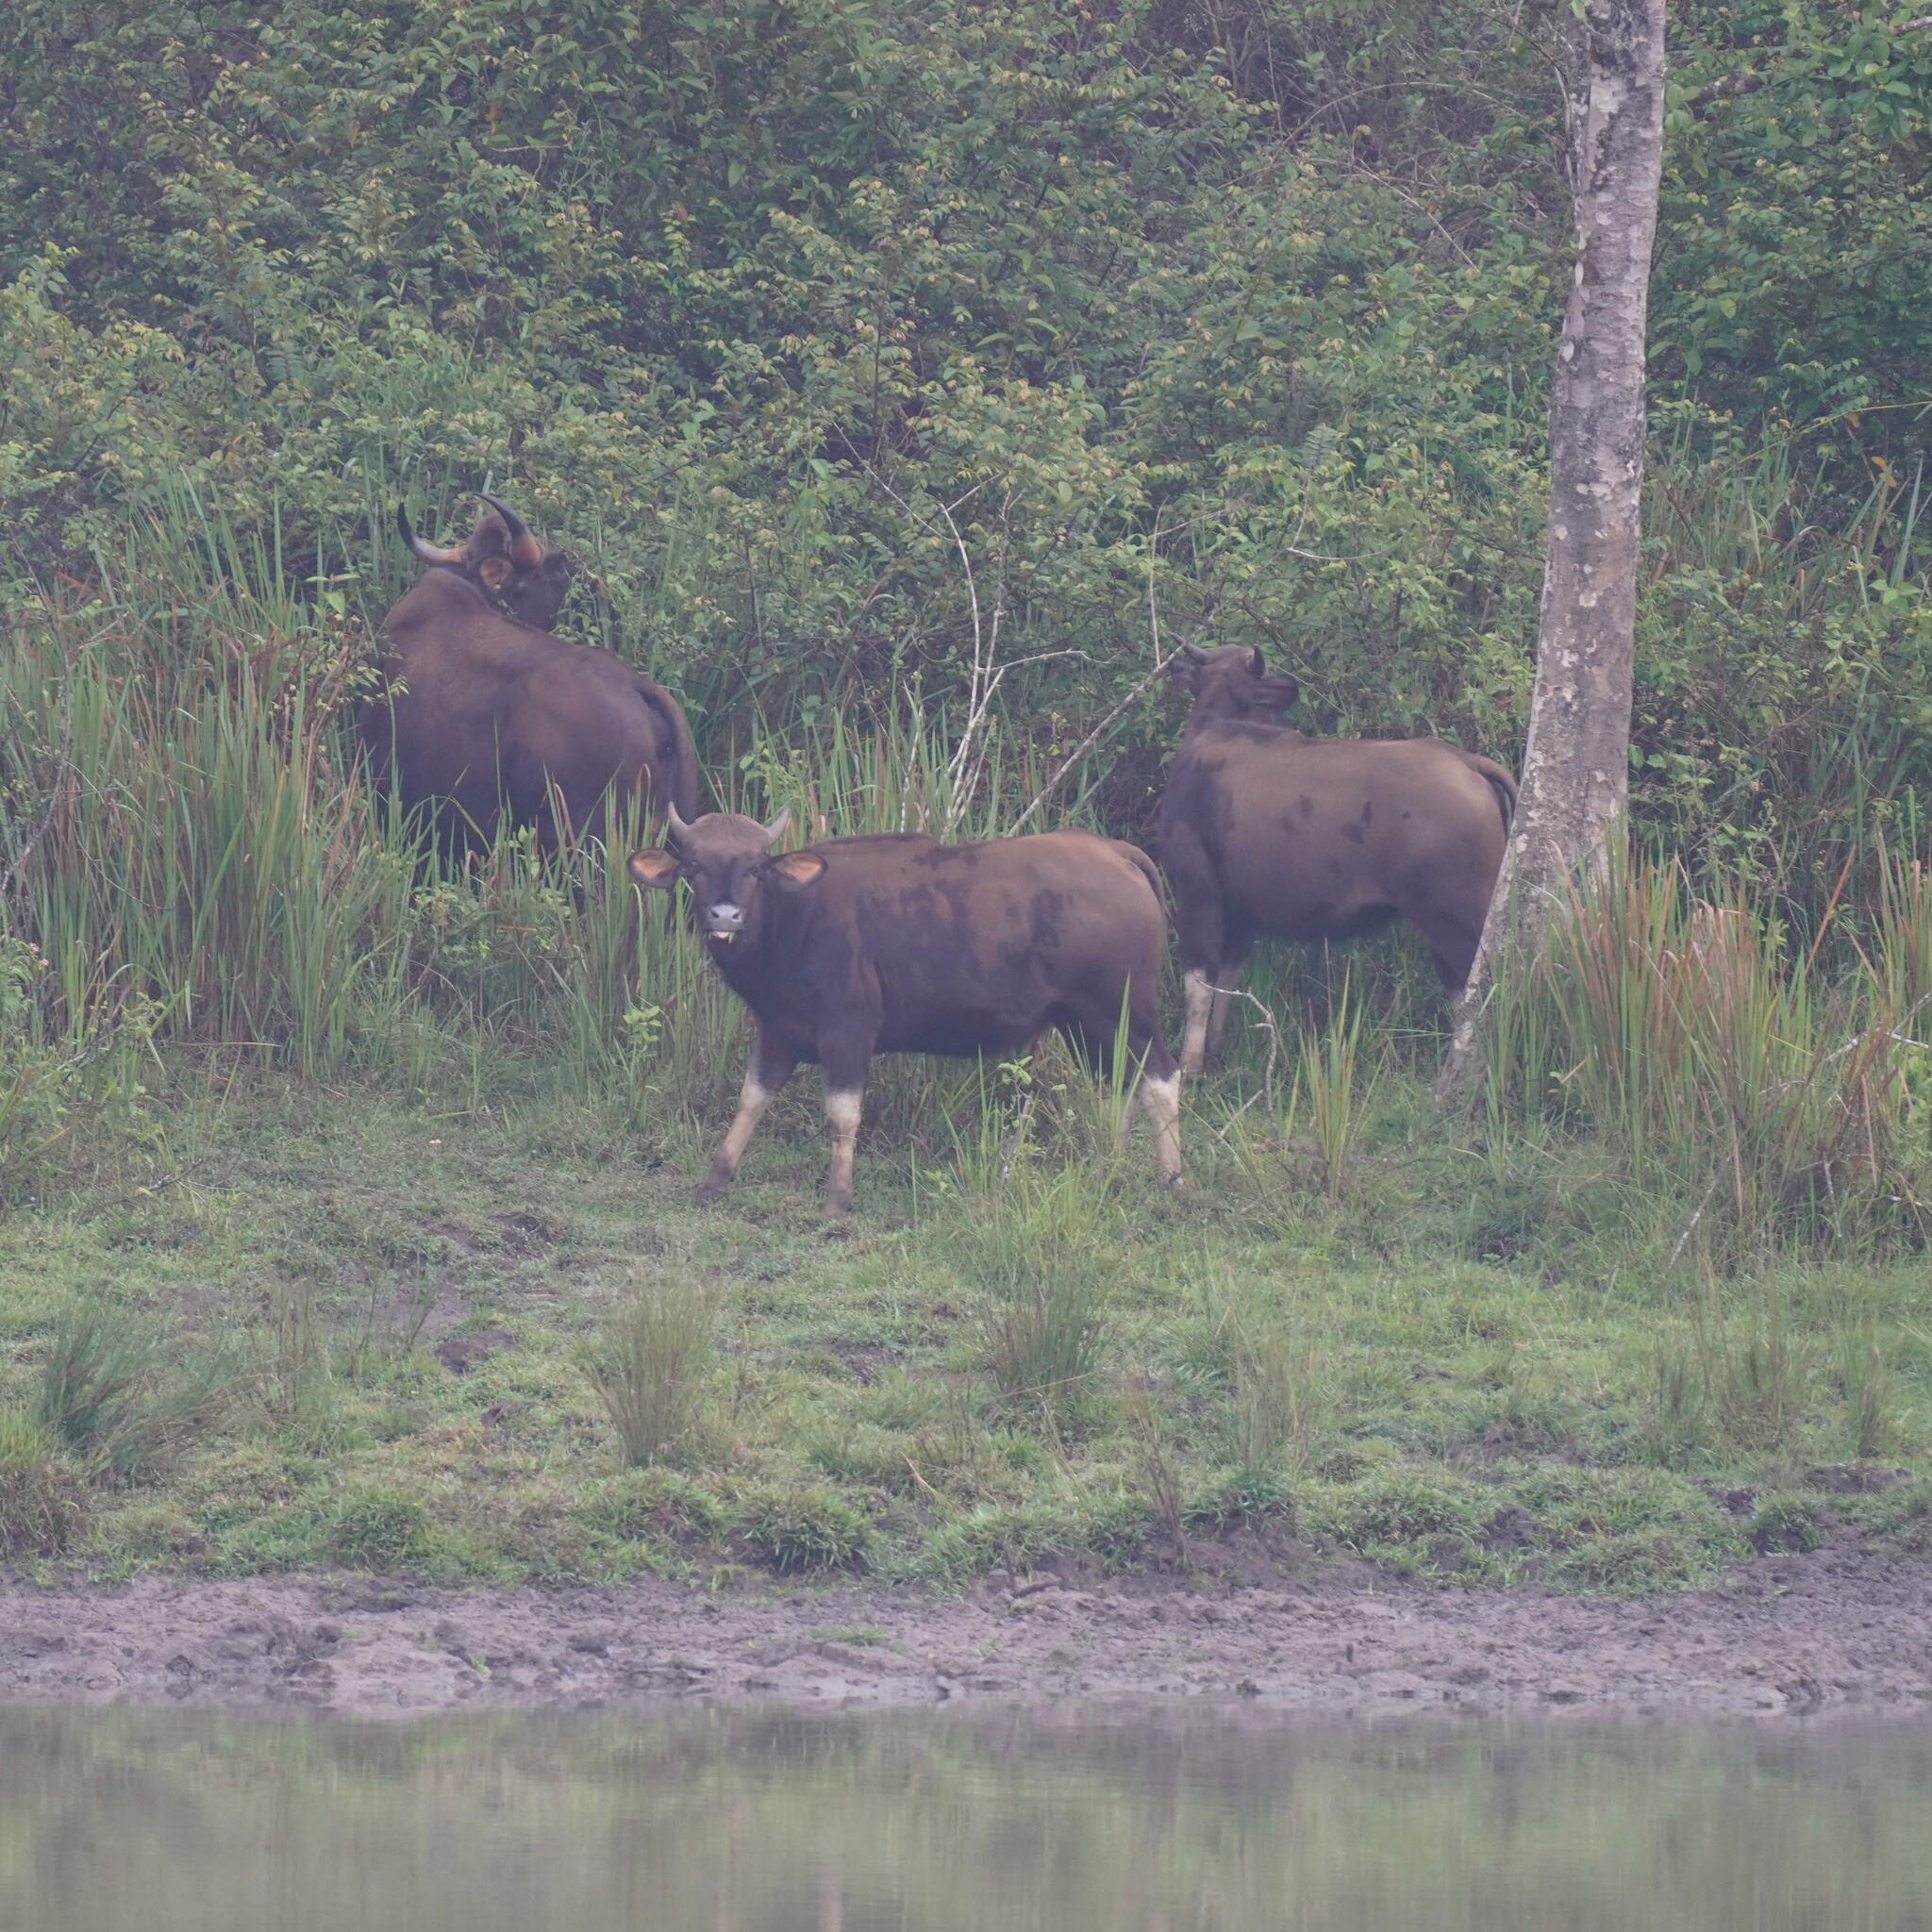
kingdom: Animalia
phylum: Chordata
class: Mammalia
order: Artiodactyla
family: Bovidae
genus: Bos
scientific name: Bos frontalis
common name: Gaur
